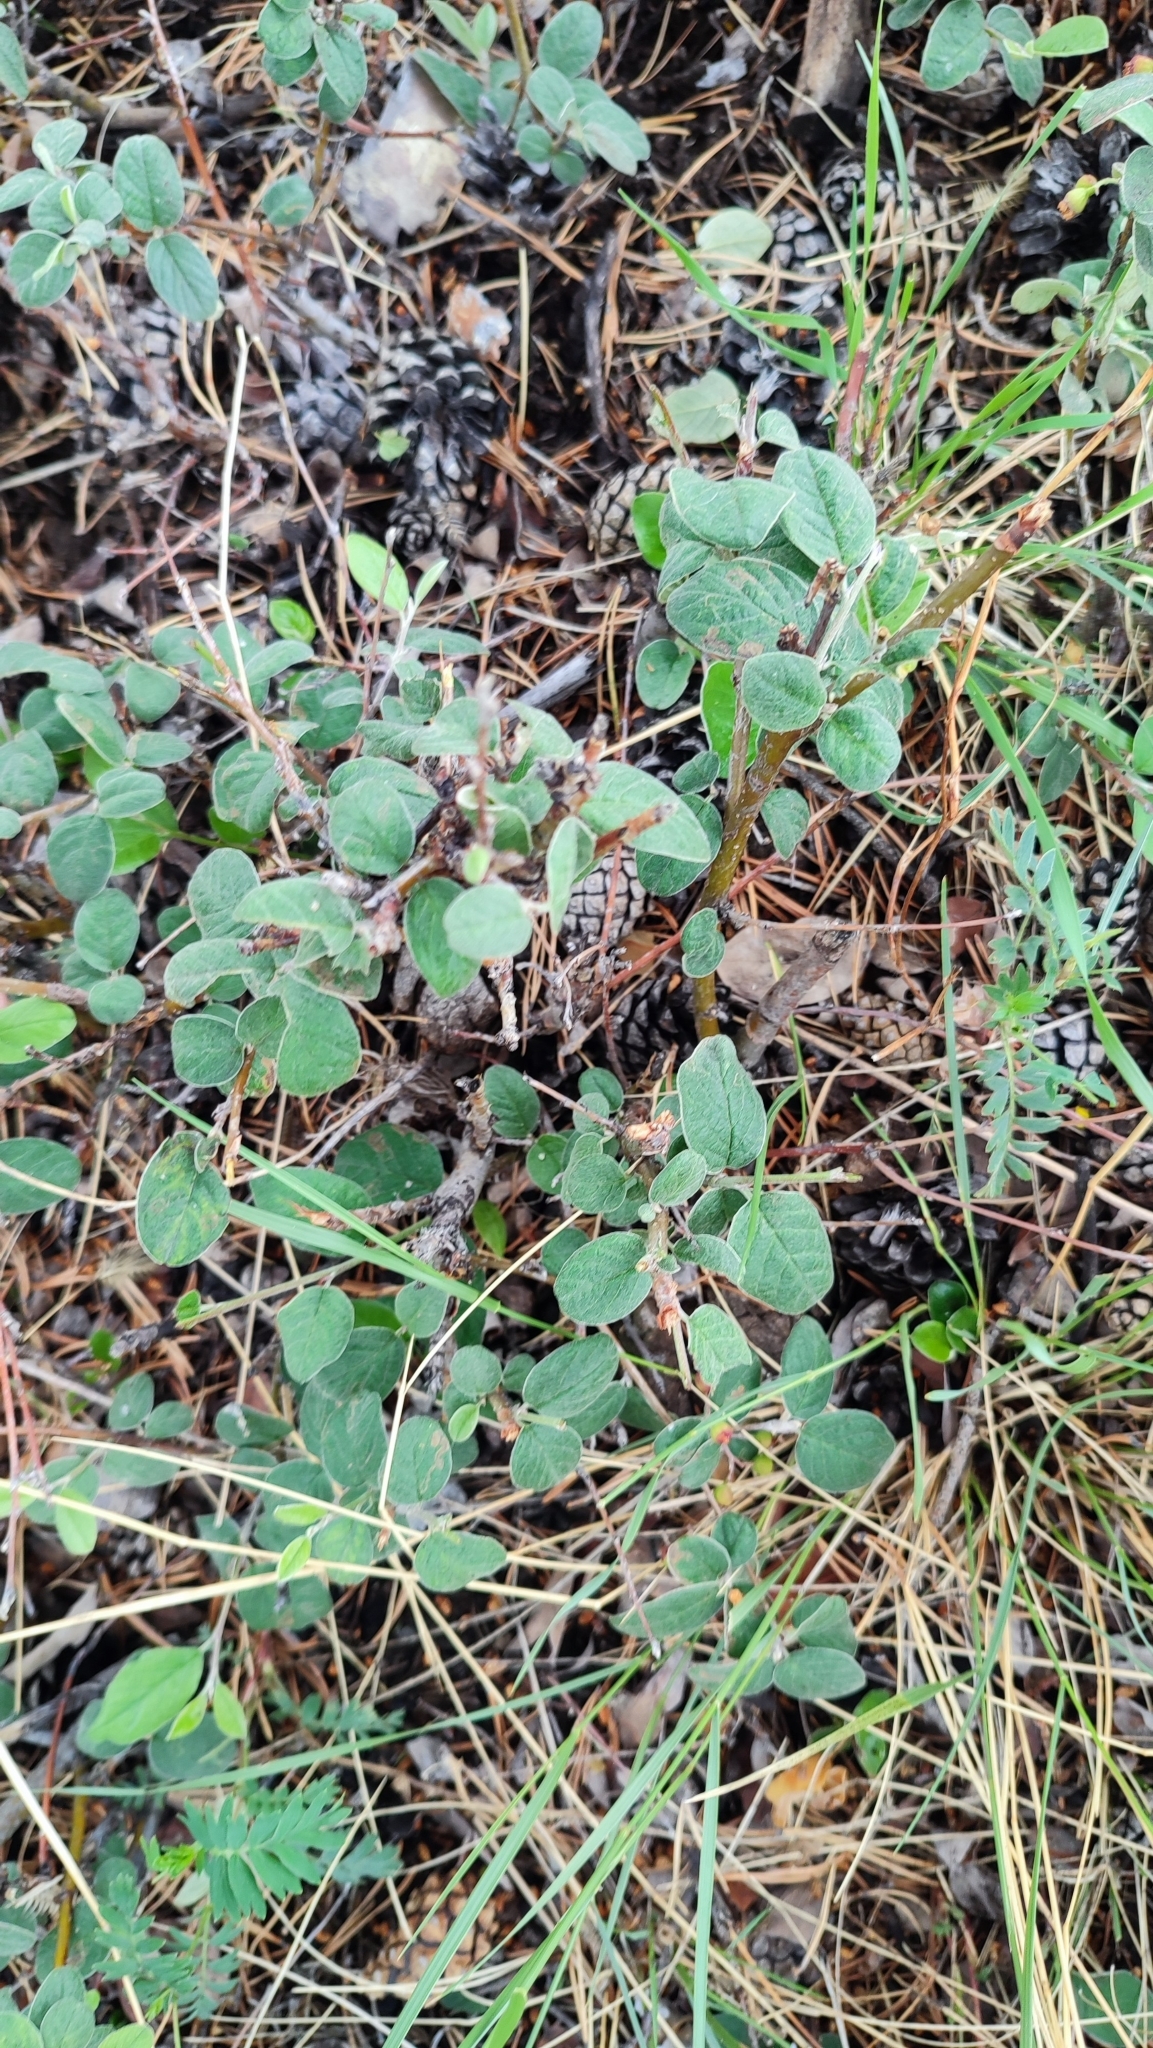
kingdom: Plantae
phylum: Tracheophyta
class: Magnoliopsida
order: Rosales
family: Rosaceae
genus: Cotoneaster
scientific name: Cotoneaster melanocarpus
